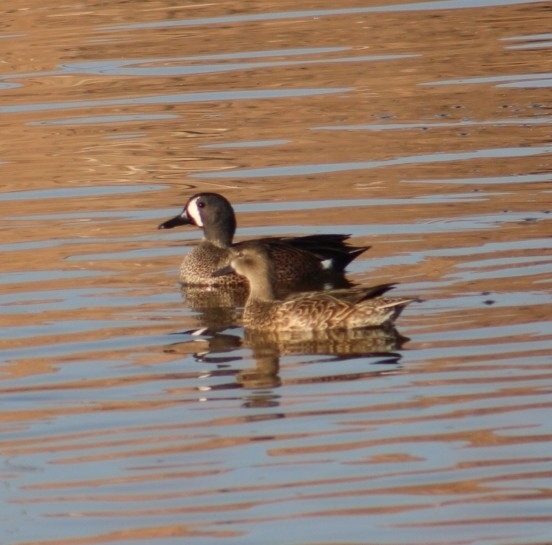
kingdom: Animalia
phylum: Chordata
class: Aves
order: Anseriformes
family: Anatidae
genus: Spatula
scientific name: Spatula discors
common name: Blue-winged teal
